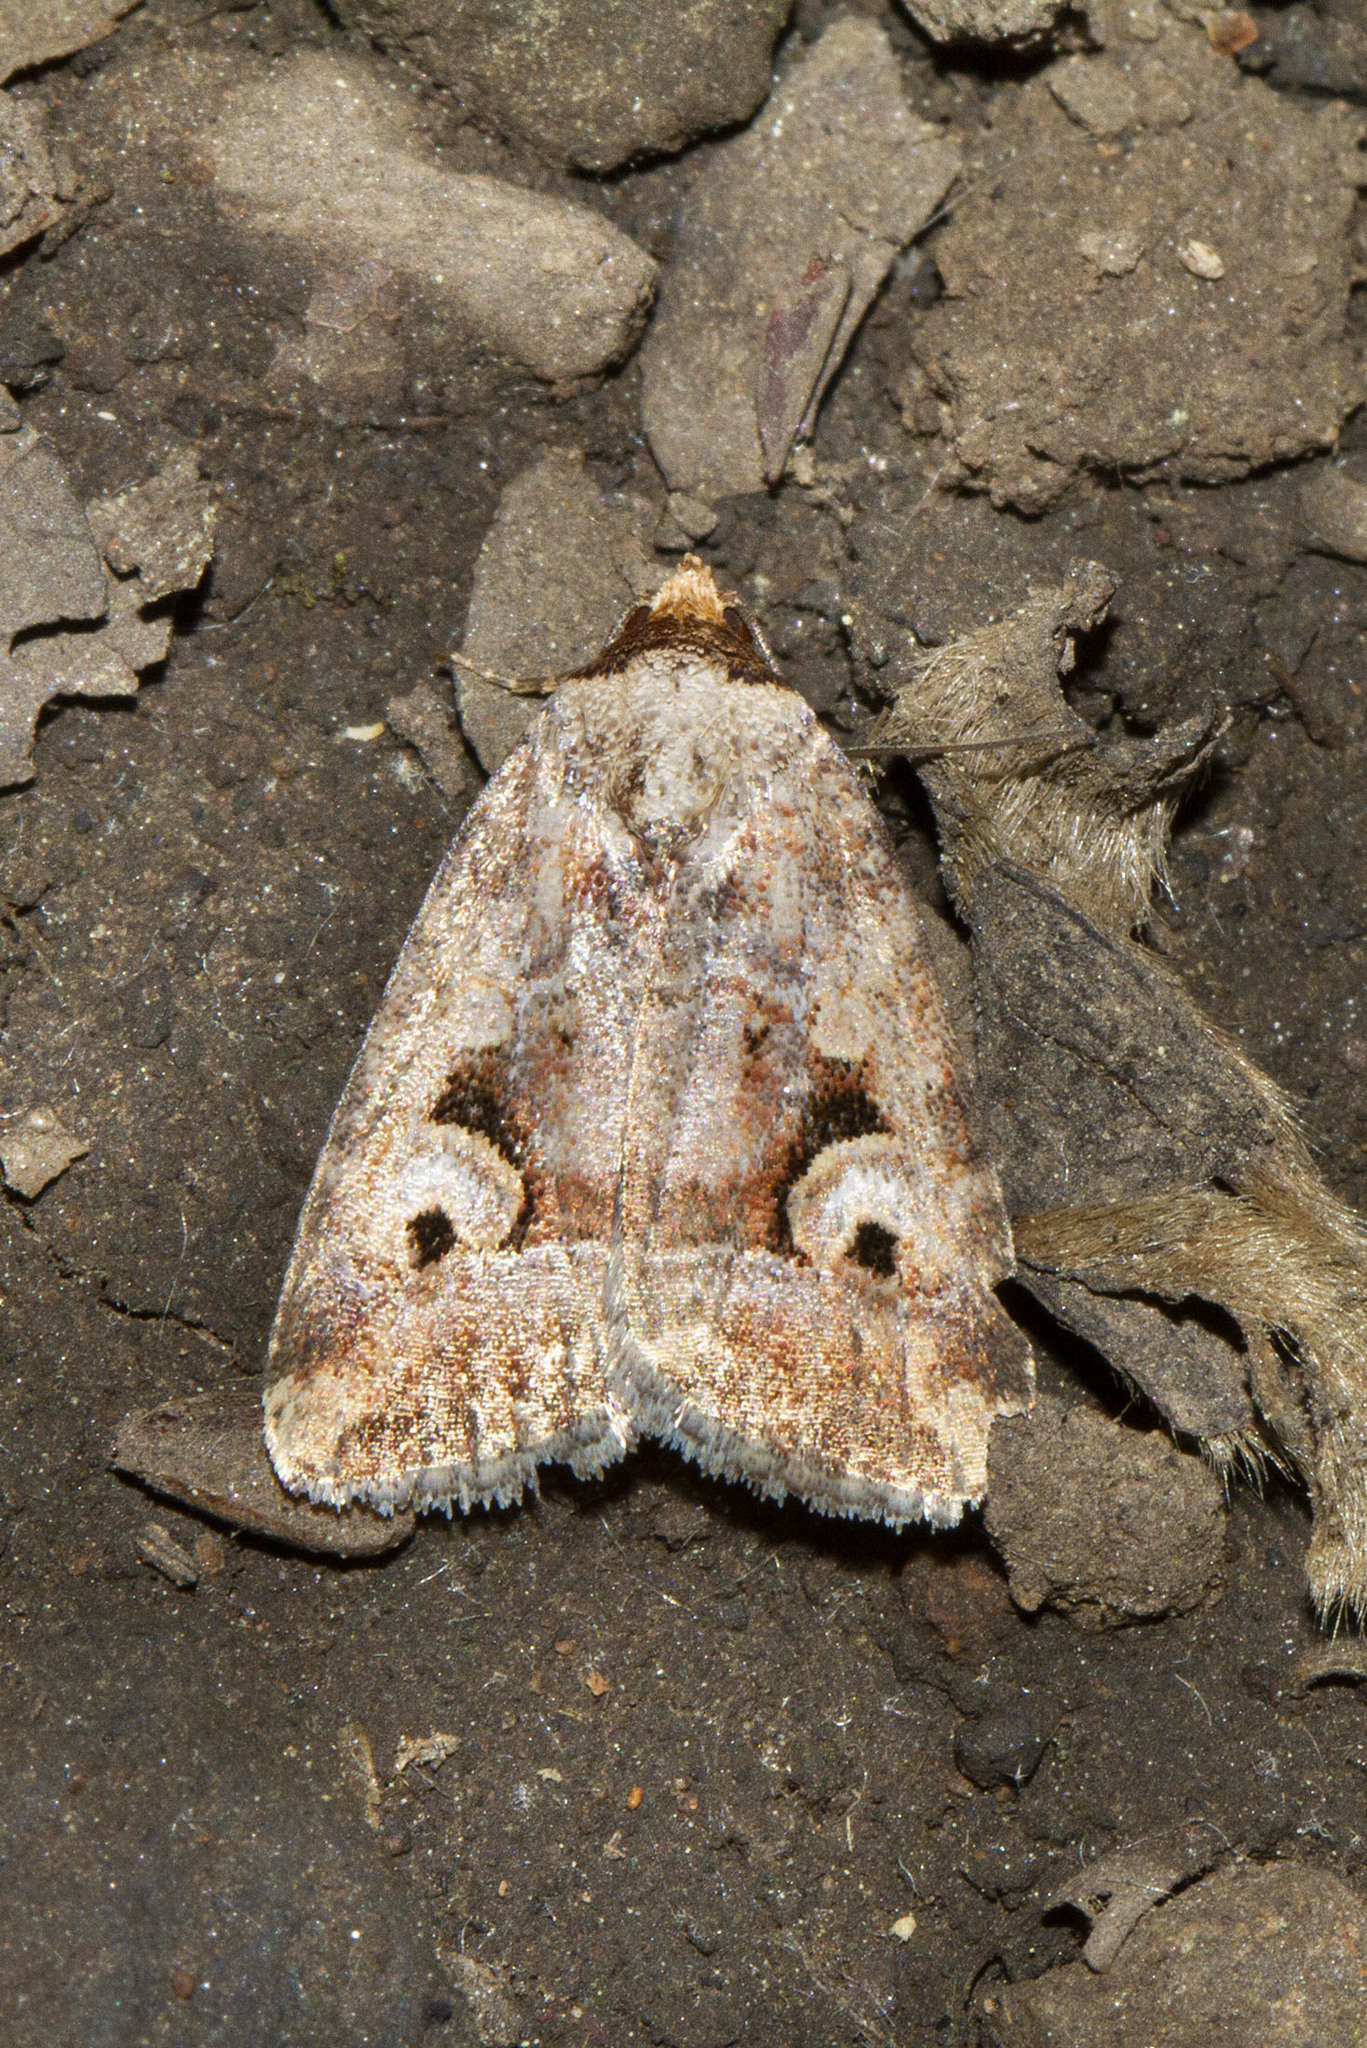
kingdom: Animalia
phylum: Arthropoda
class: Insecta
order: Lepidoptera
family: Noctuidae
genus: Elaphria
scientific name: Elaphria alapallida
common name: Pale-winged midget
